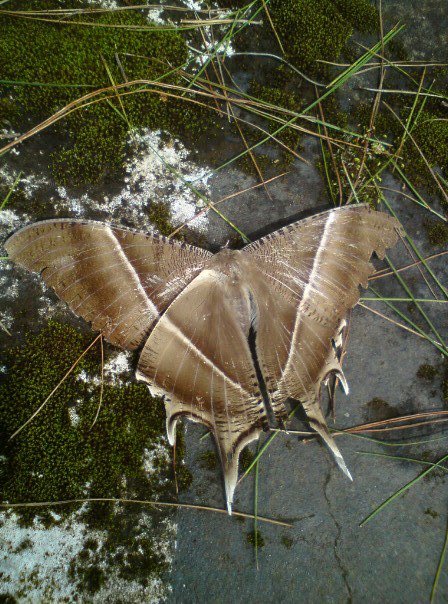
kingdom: Animalia
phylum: Arthropoda
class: Insecta
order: Lepidoptera
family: Uraniidae
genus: Lyssa
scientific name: Lyssa zampa
